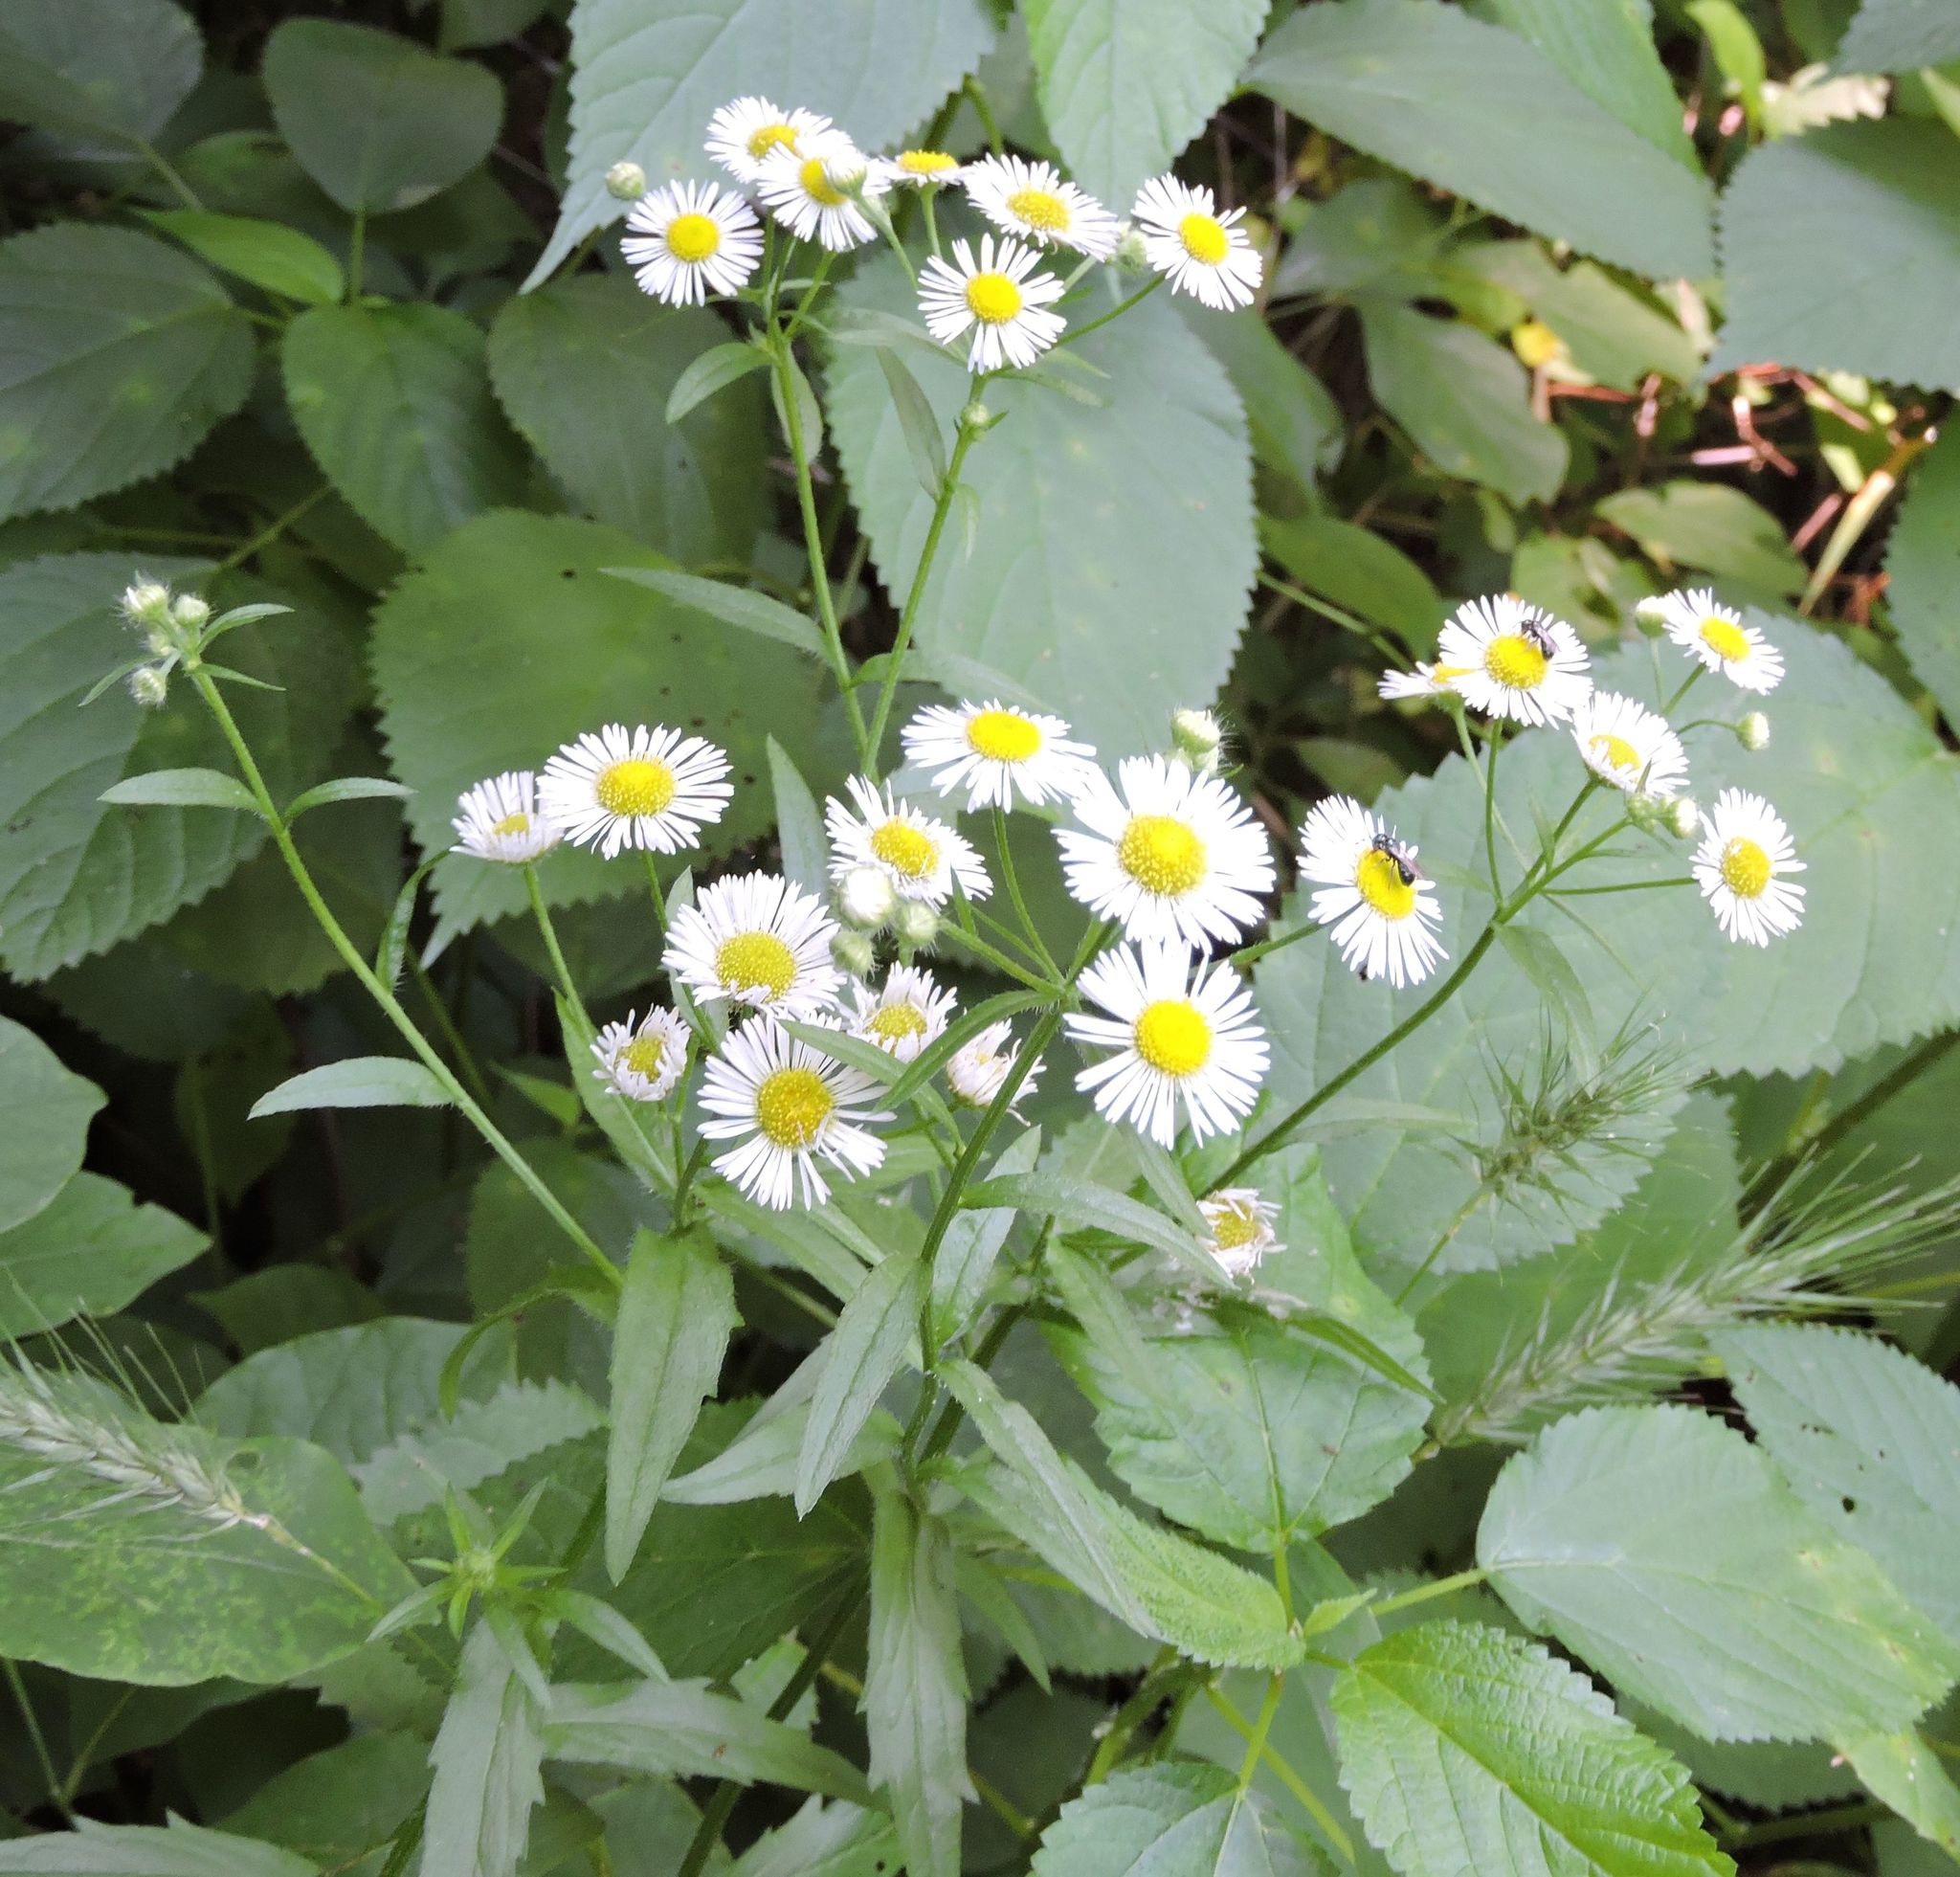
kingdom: Plantae
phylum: Tracheophyta
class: Magnoliopsida
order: Asterales
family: Asteraceae
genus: Erigeron
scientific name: Erigeron annuus
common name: Tall fleabane
